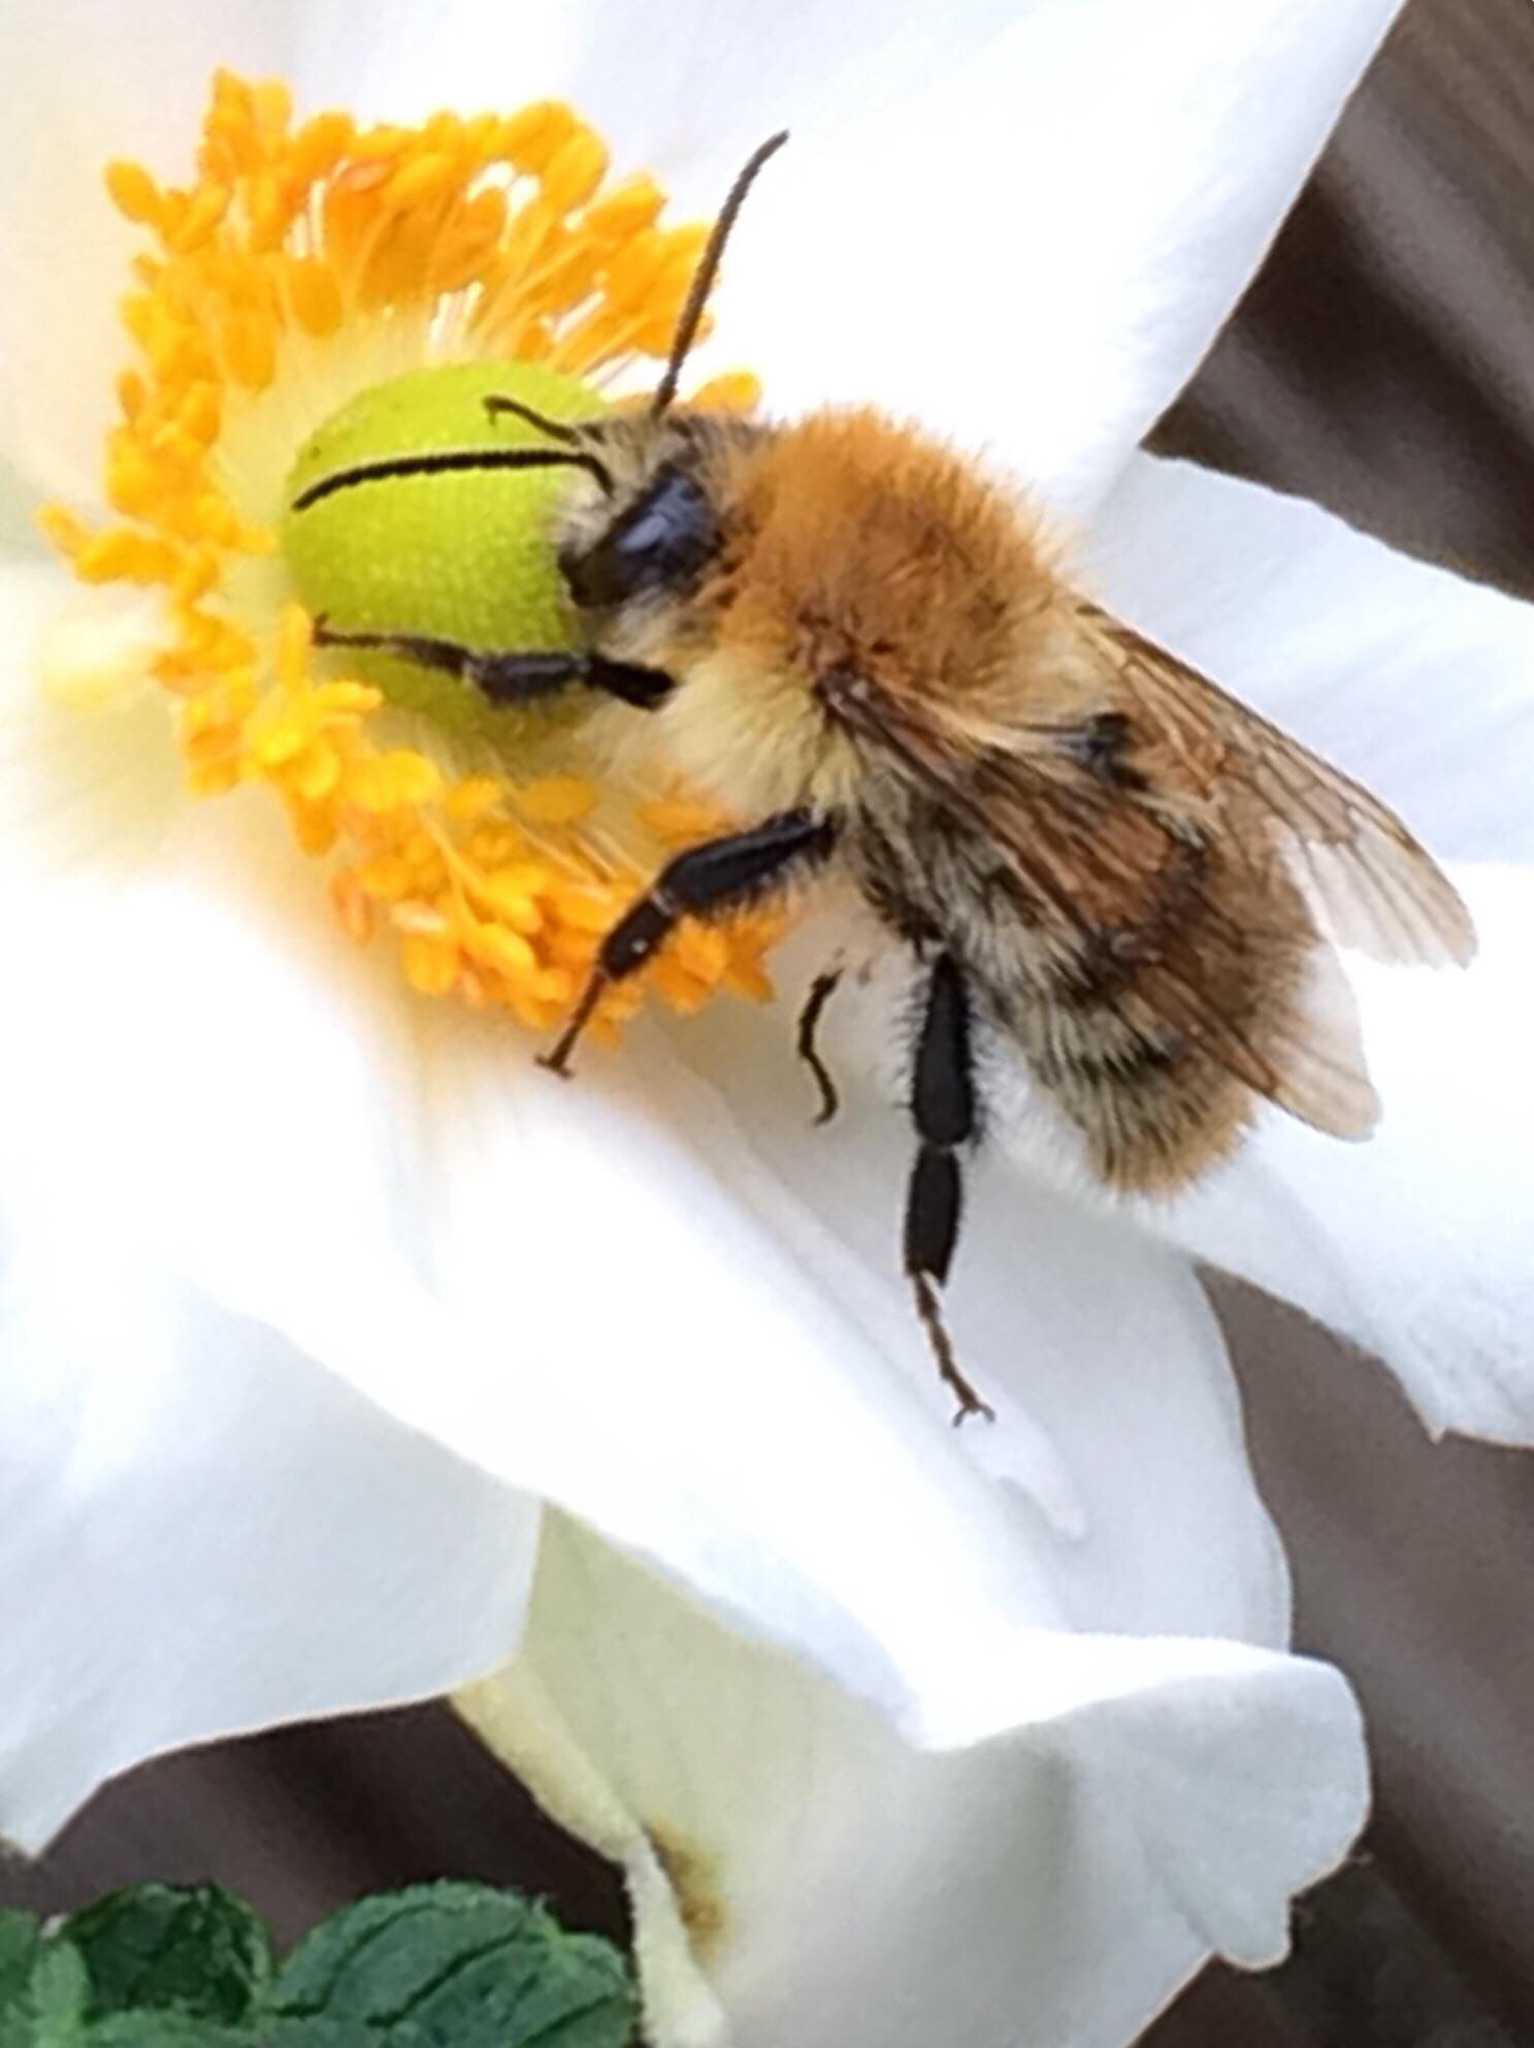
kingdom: Animalia
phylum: Arthropoda
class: Insecta
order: Hymenoptera
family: Apidae
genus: Bombus
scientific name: Bombus pascuorum
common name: Common carder bee
